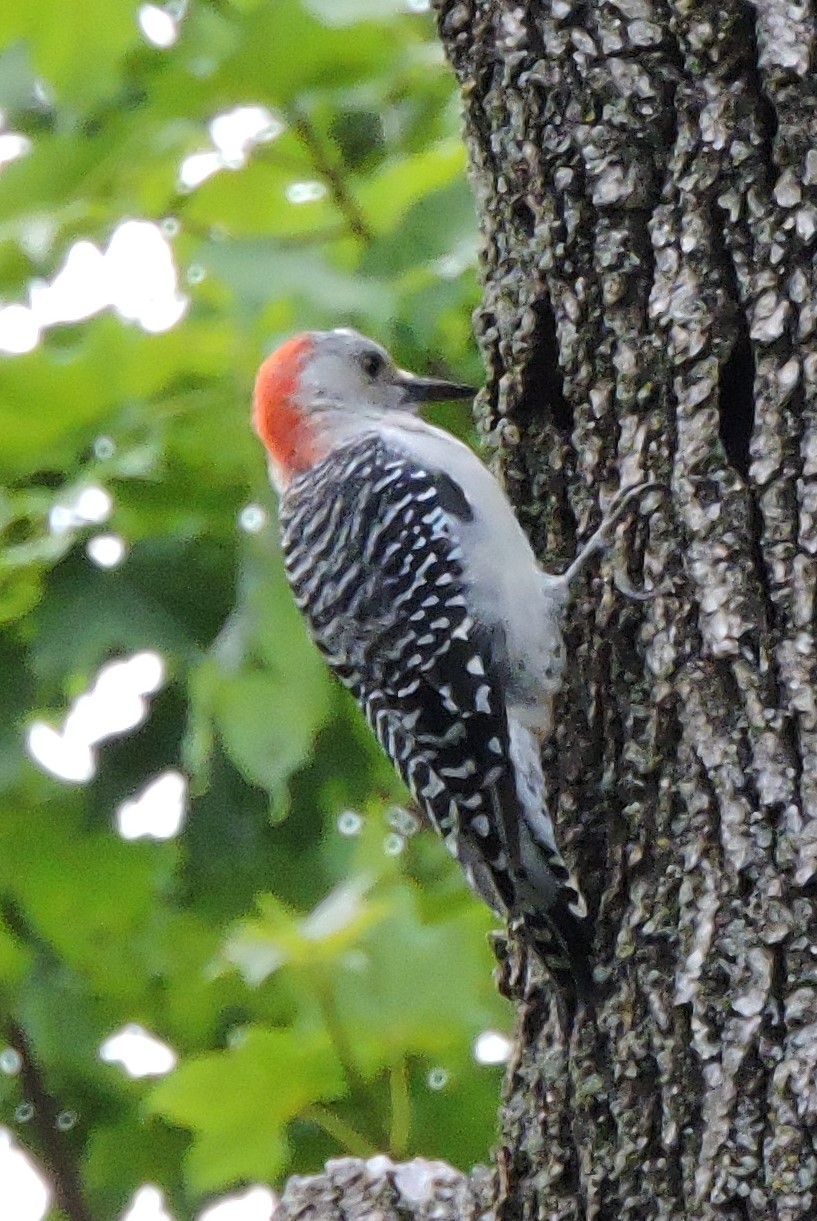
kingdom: Animalia
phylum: Chordata
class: Aves
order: Piciformes
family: Picidae
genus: Melanerpes
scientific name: Melanerpes carolinus
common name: Red-bellied woodpecker
